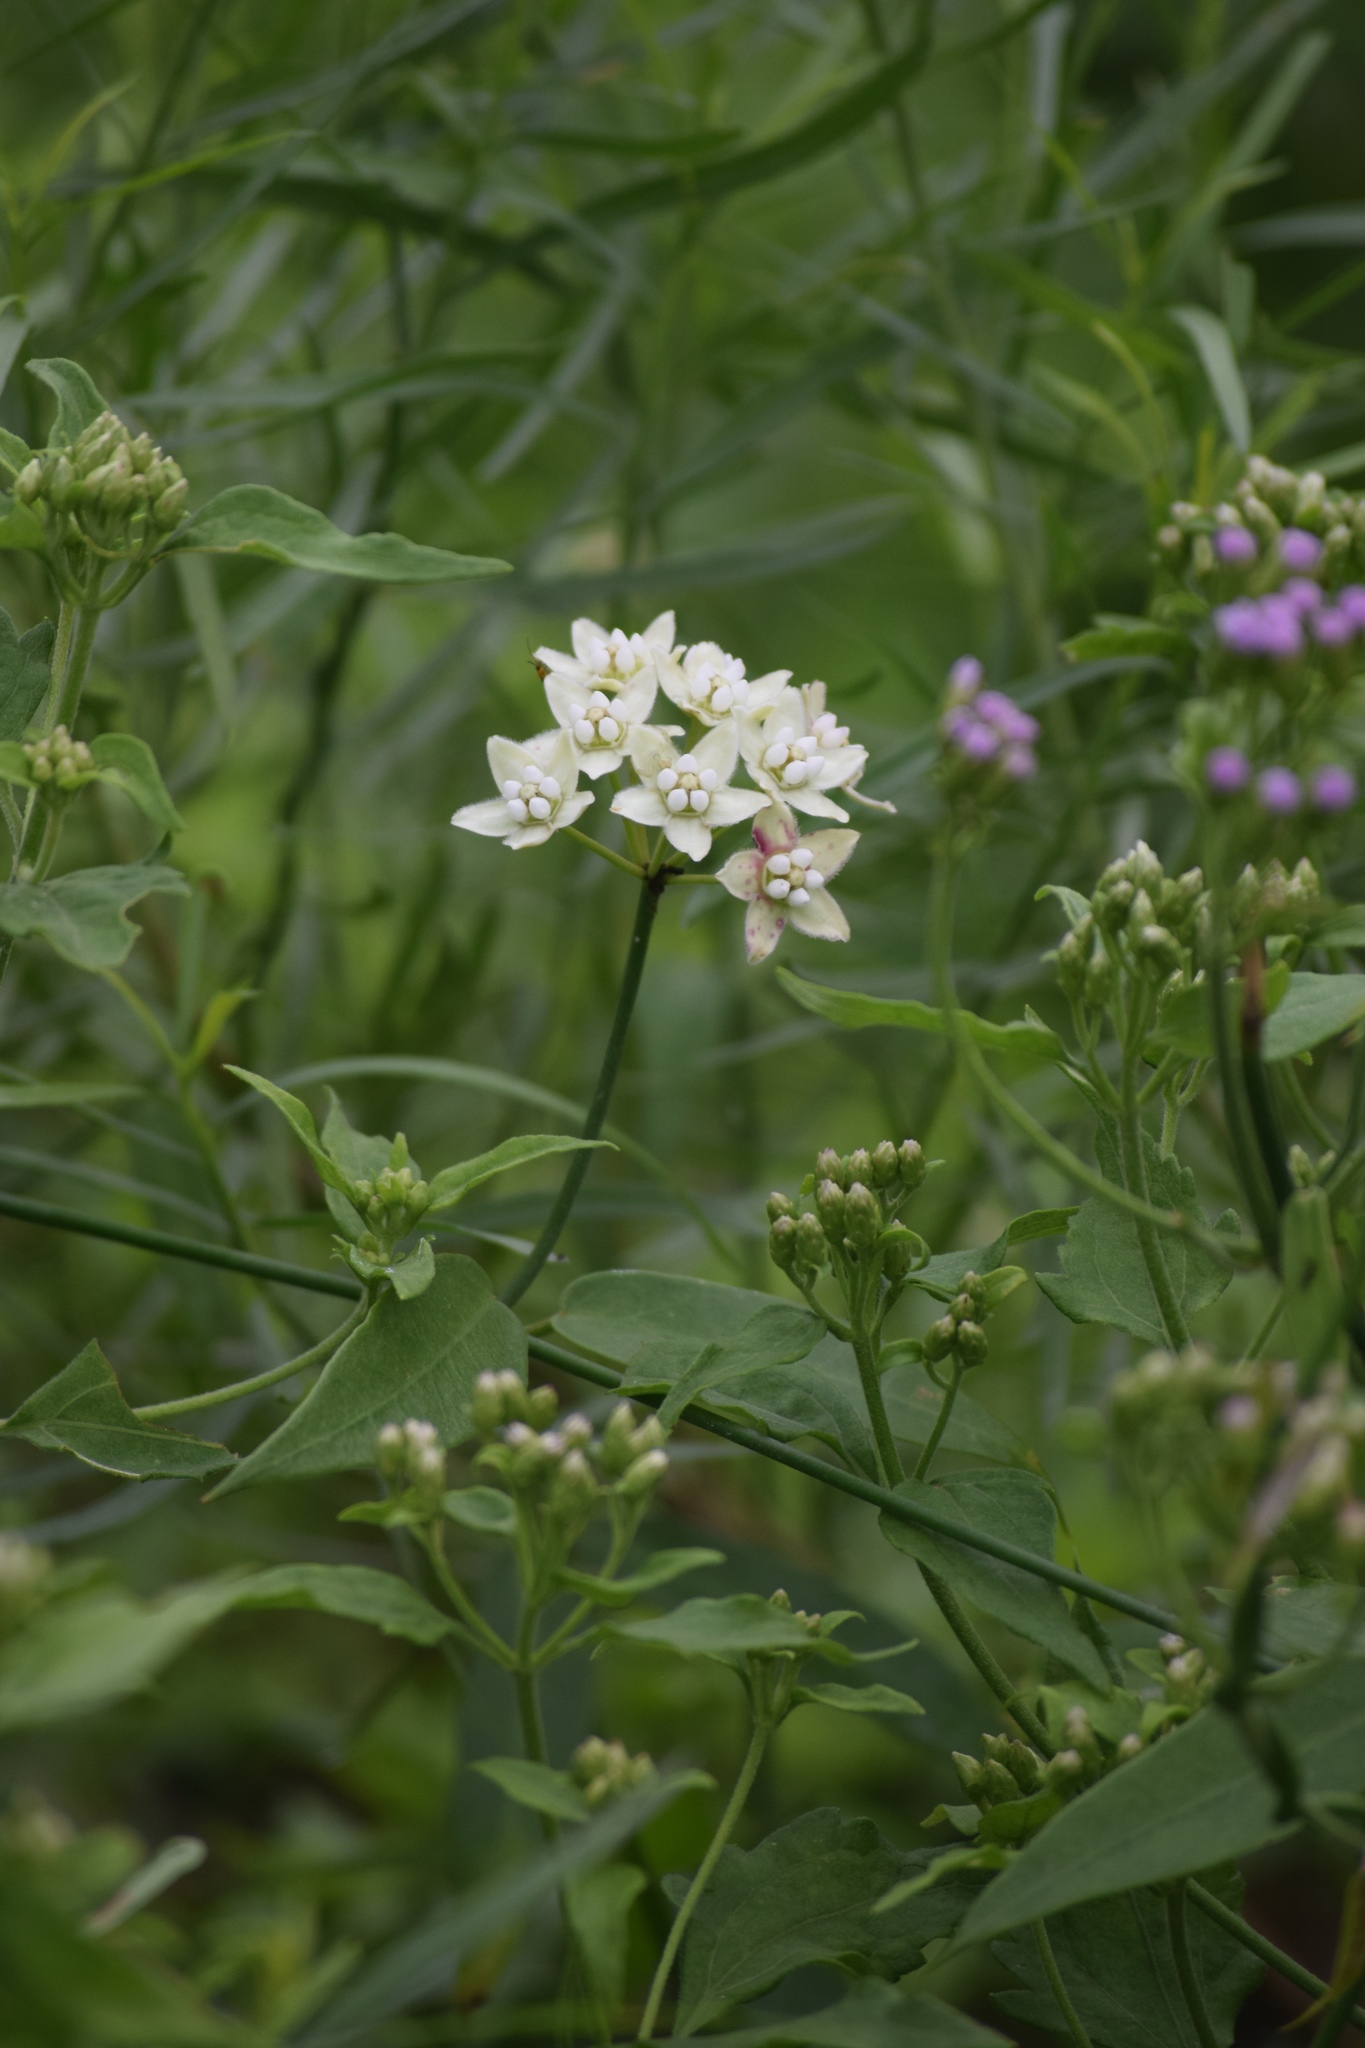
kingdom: Plantae
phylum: Tracheophyta
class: Magnoliopsida
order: Gentianales
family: Apocynaceae
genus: Funastrum
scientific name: Funastrum clausum
